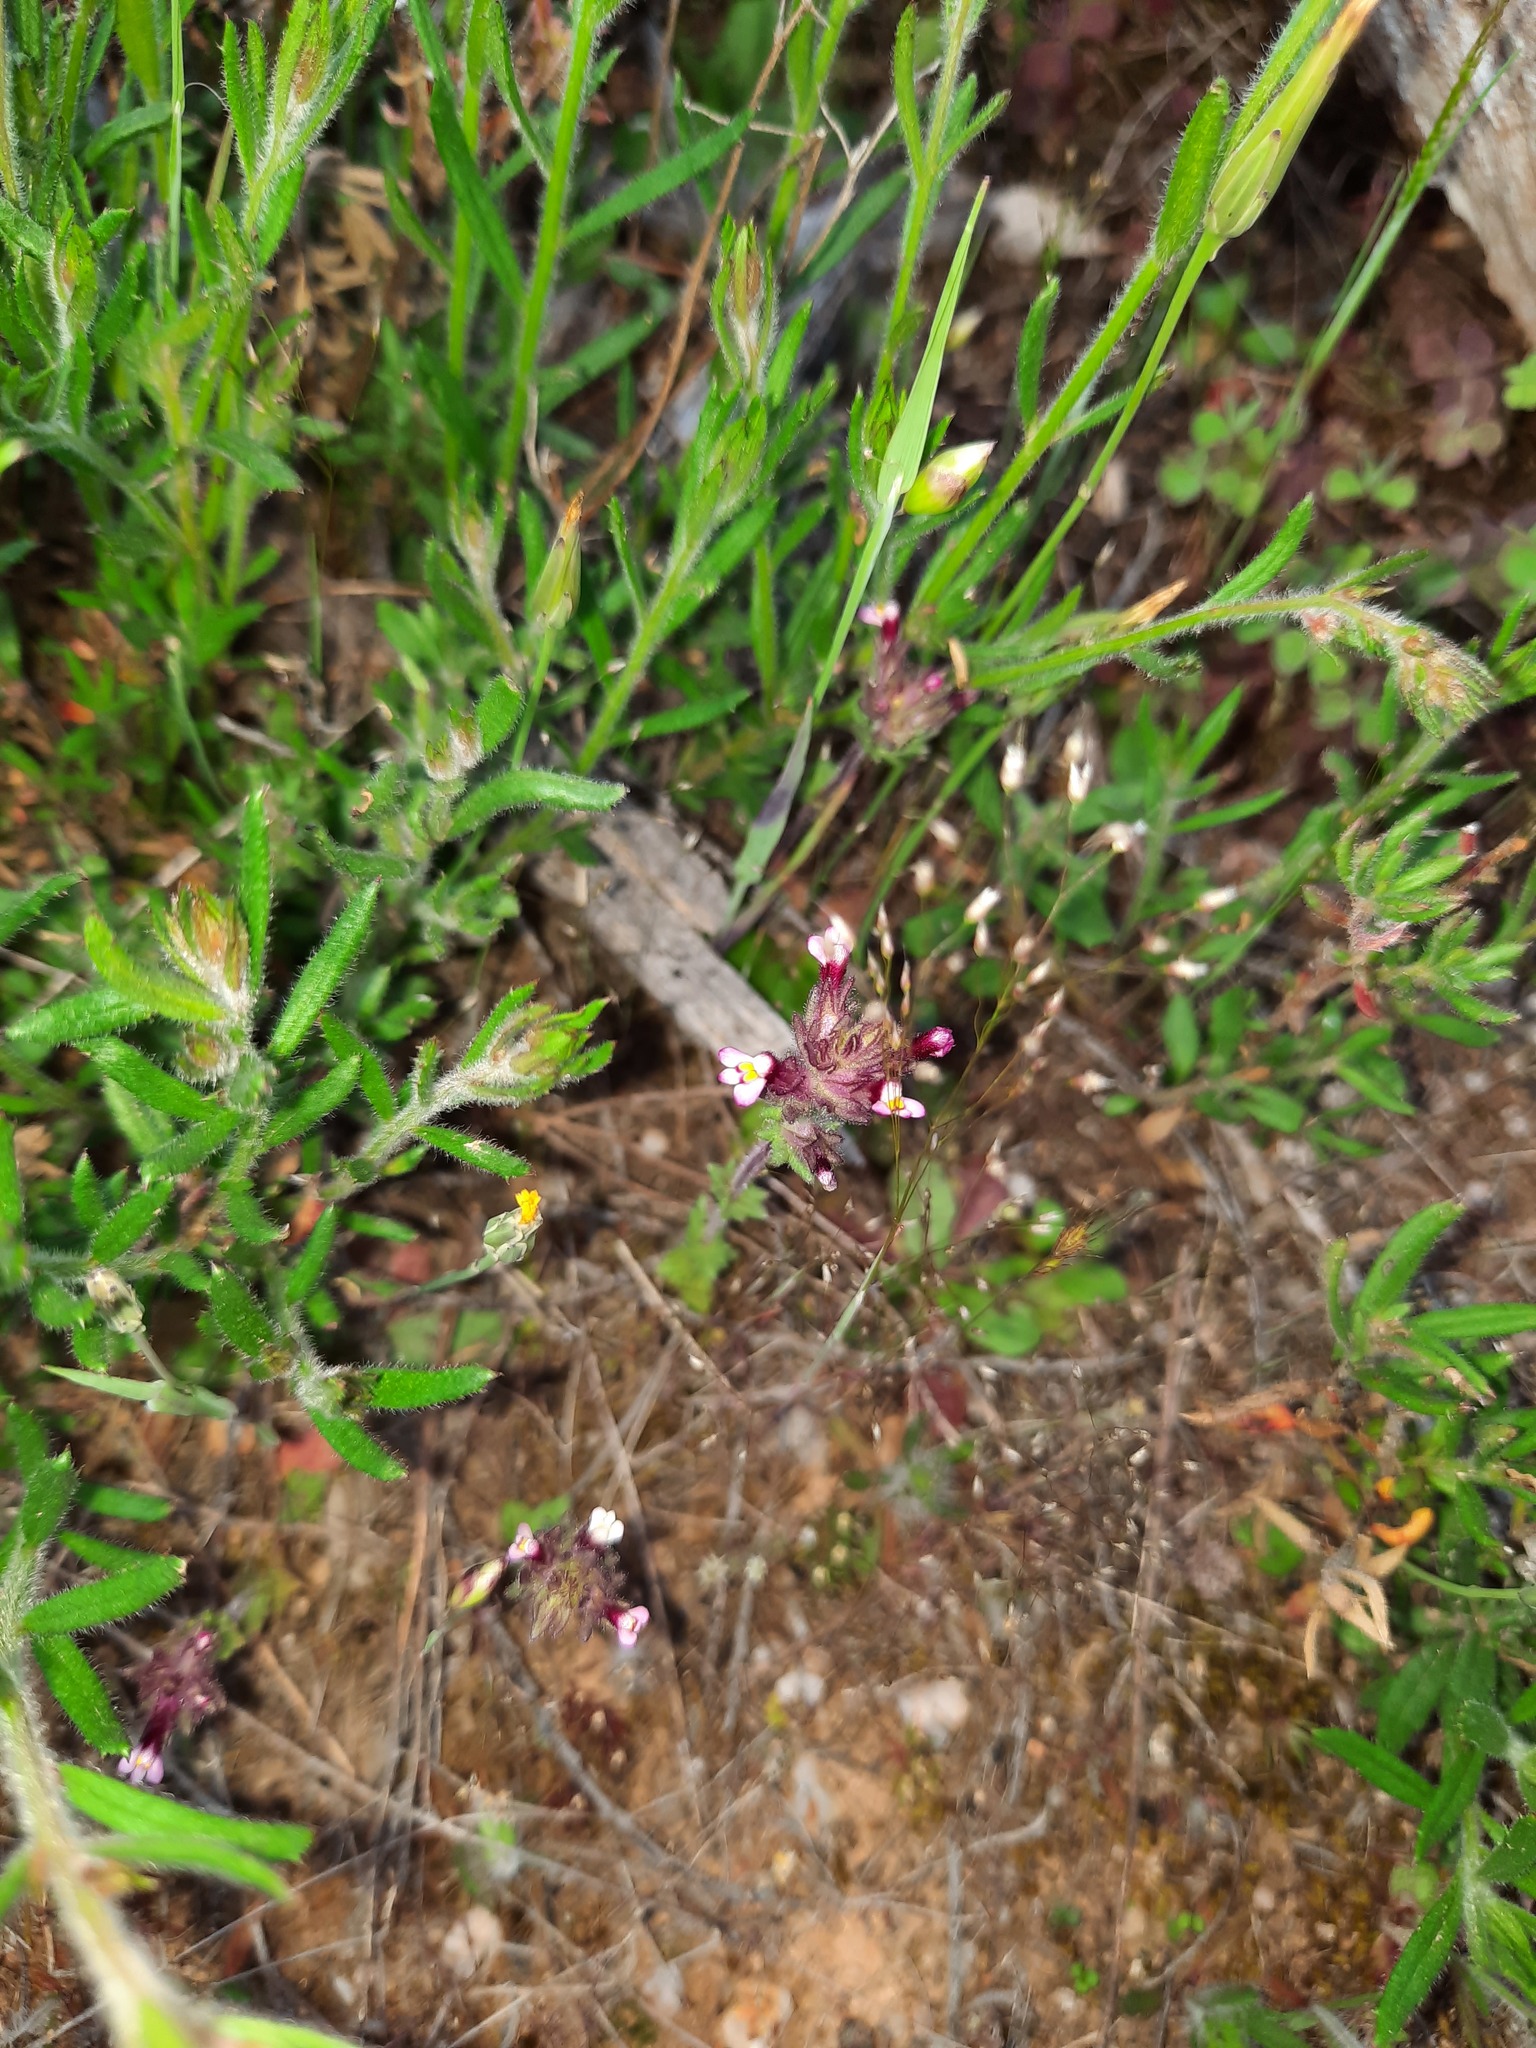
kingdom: Plantae
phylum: Tracheophyta
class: Magnoliopsida
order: Lamiales
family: Orobanchaceae
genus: Parentucellia
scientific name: Parentucellia latifolia
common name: Broadleaf glandweed
